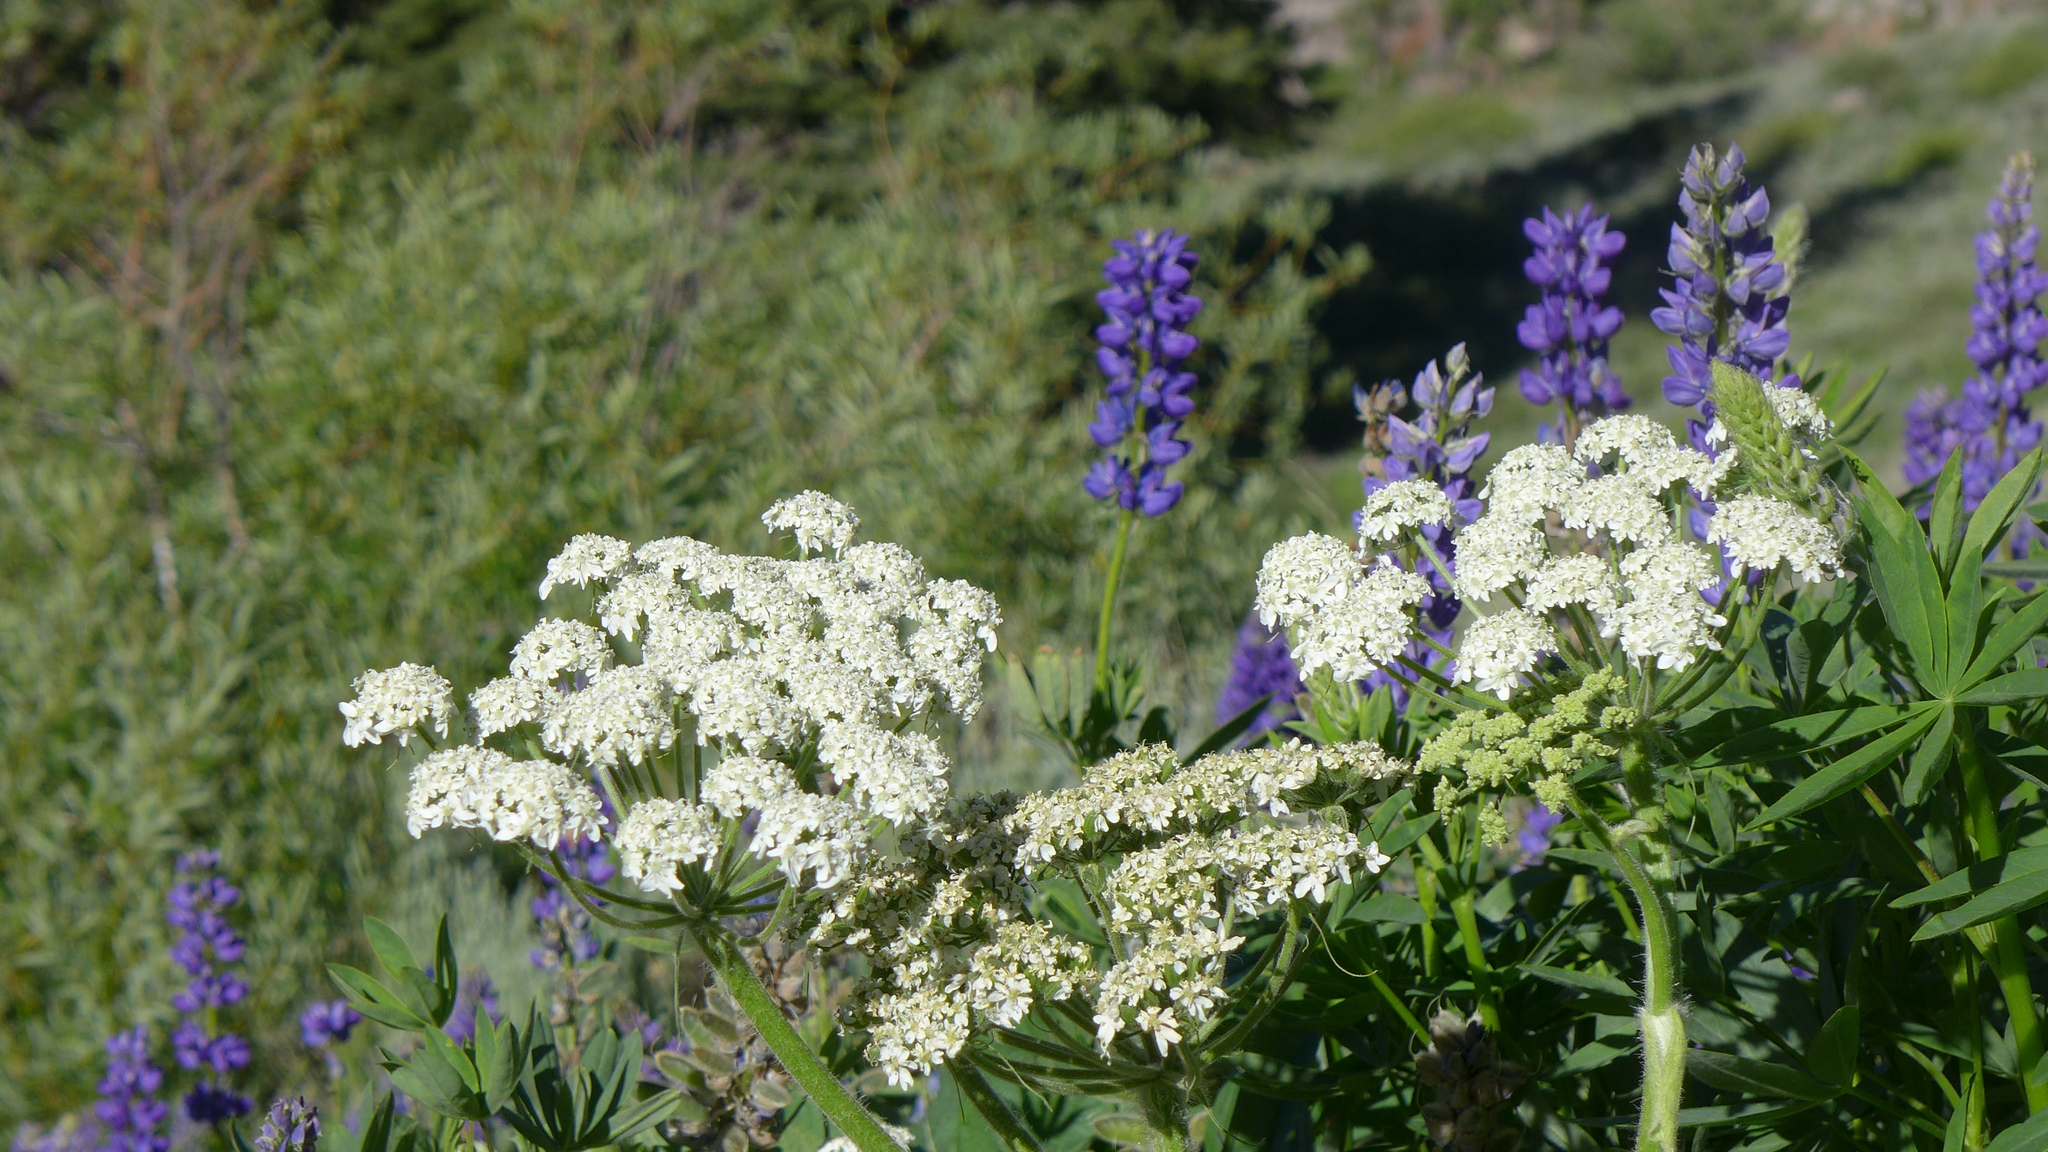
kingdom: Plantae
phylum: Tracheophyta
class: Magnoliopsida
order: Apiales
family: Apiaceae
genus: Heracleum
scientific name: Heracleum maximum
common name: American cow parsnip
